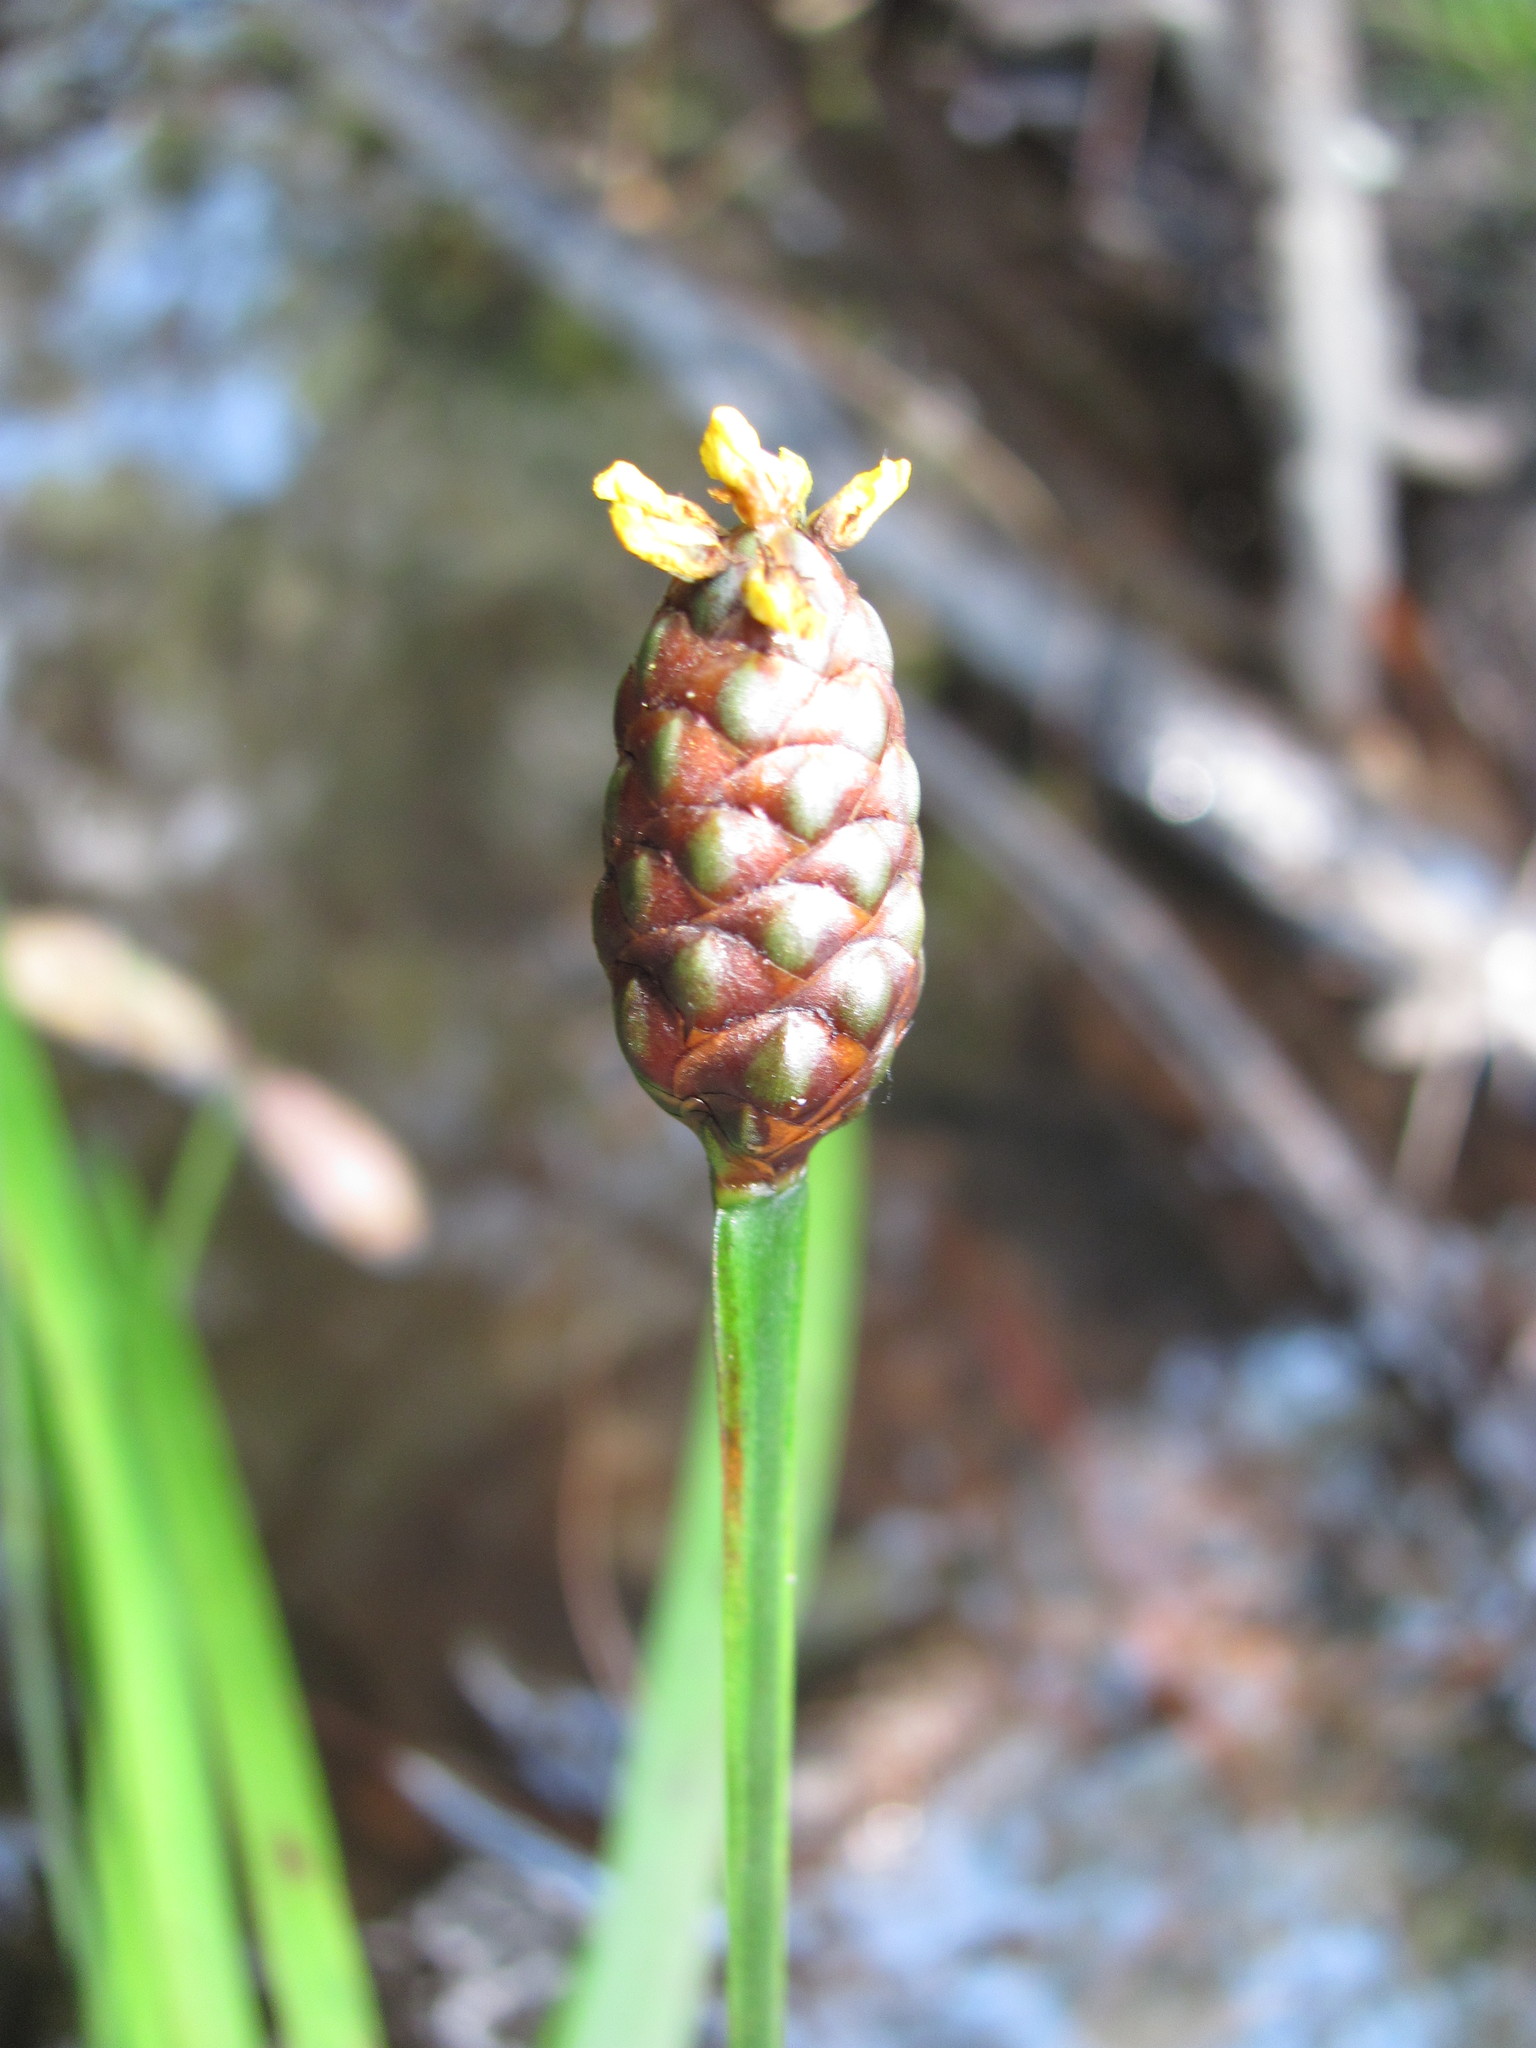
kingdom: Plantae
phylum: Tracheophyta
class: Liliopsida
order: Poales
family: Xyridaceae
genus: Xyris
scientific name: Xyris laxifolia
